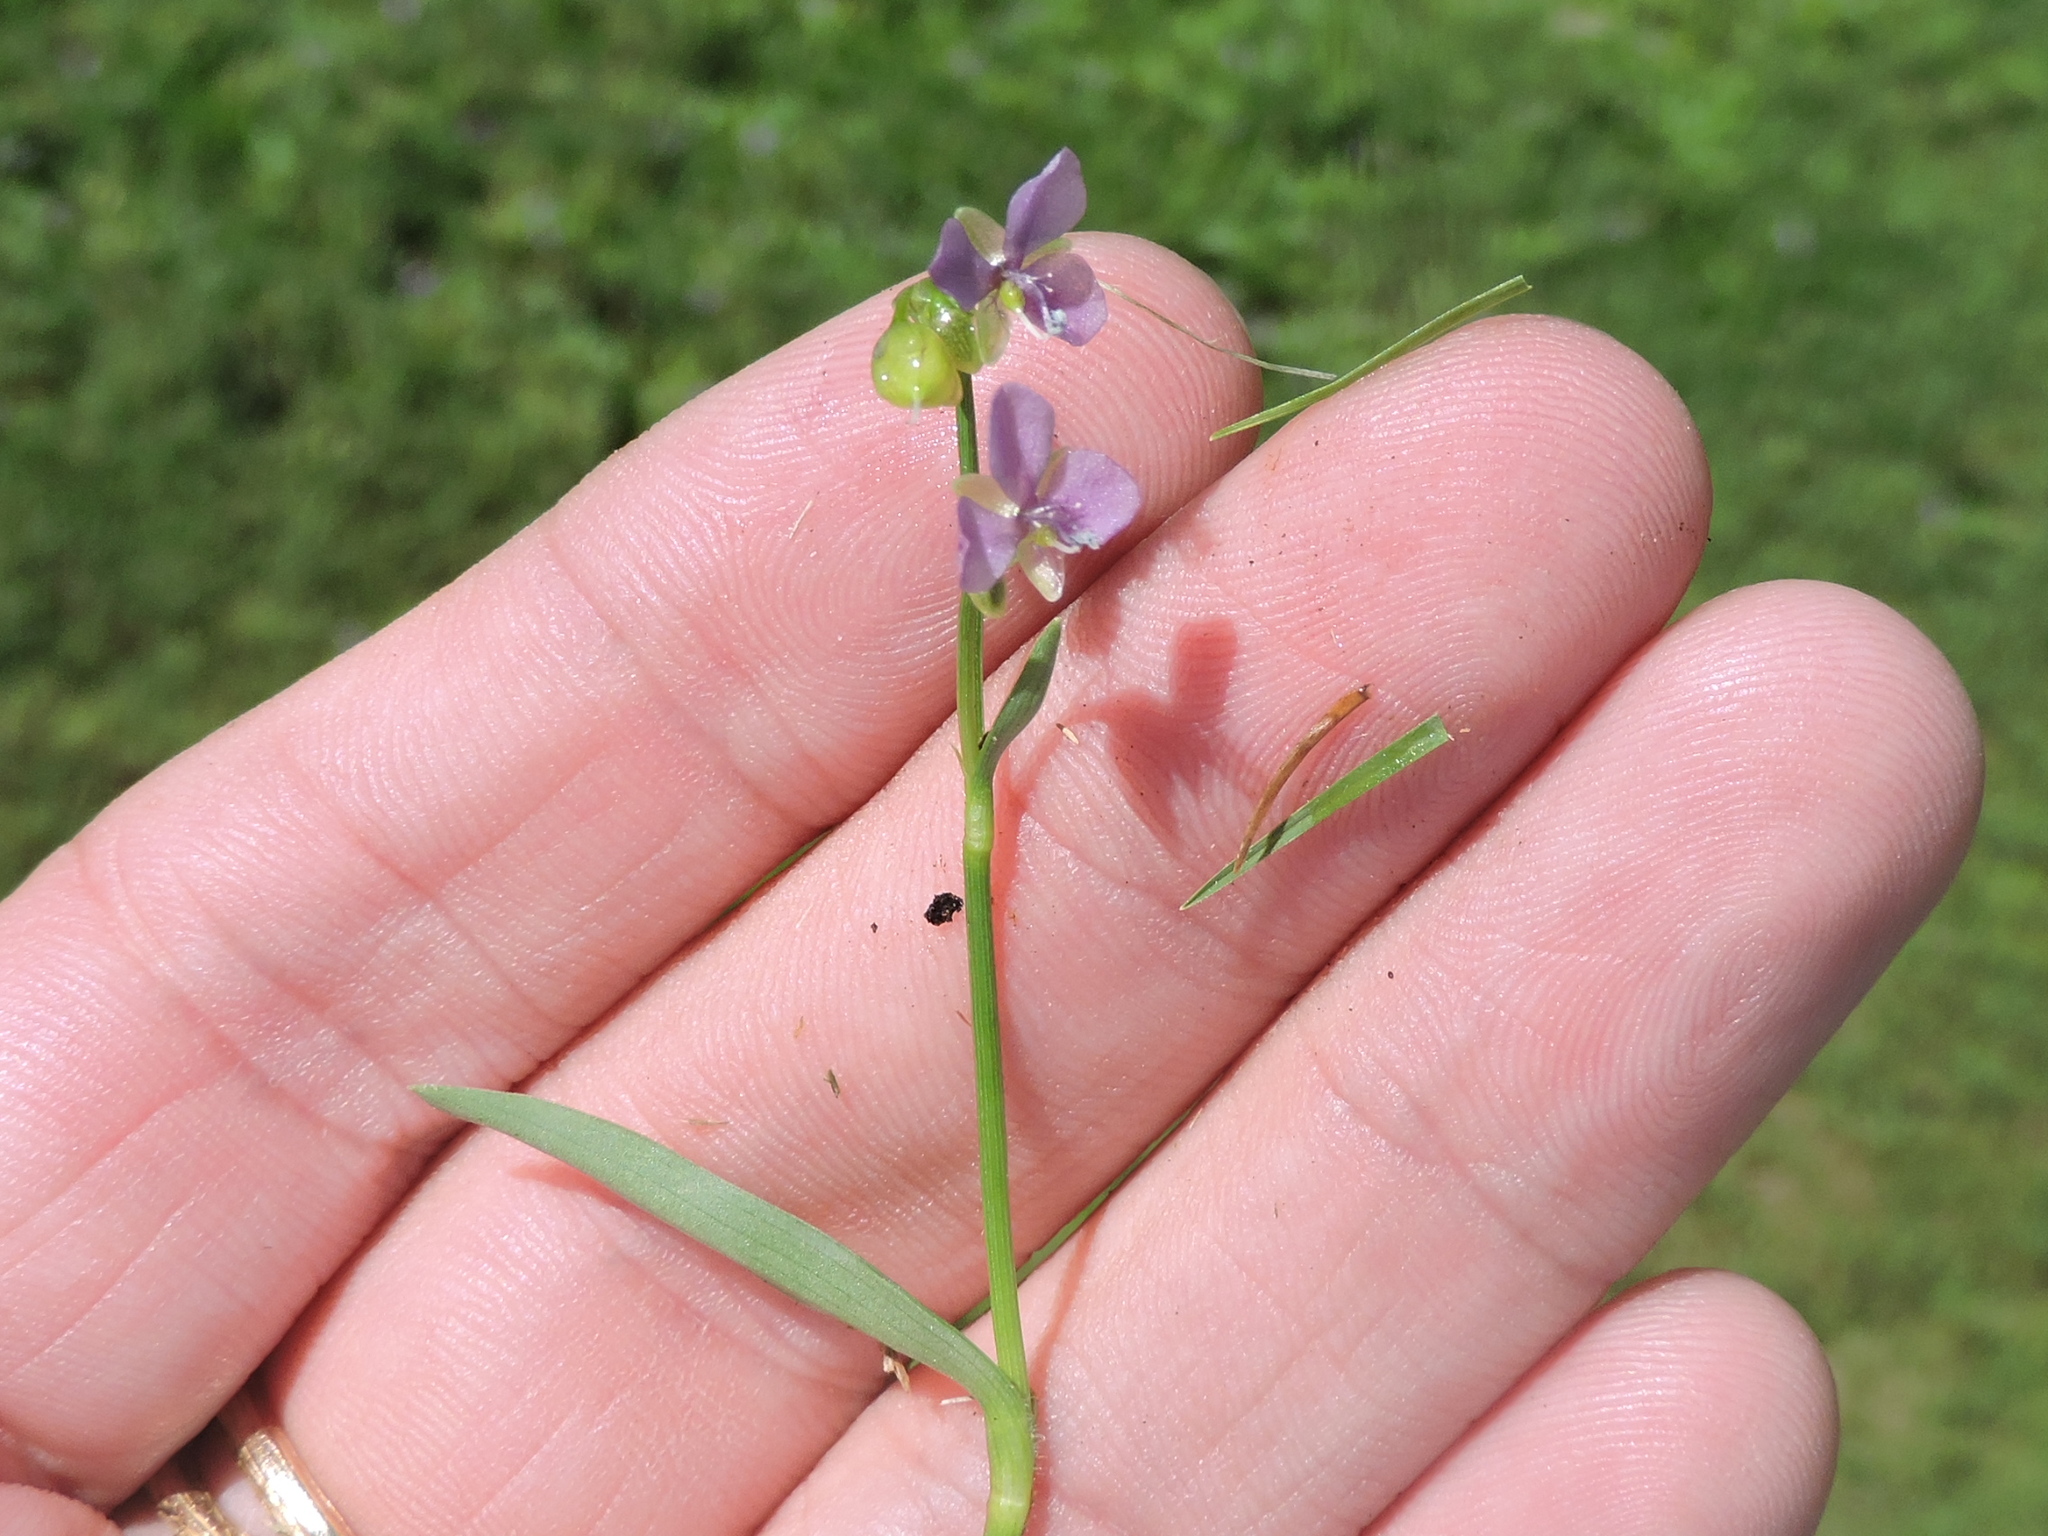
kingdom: Plantae
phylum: Tracheophyta
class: Liliopsida
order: Commelinales
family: Commelinaceae
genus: Murdannia
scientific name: Murdannia nudiflora
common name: Nakedstem dewflower
